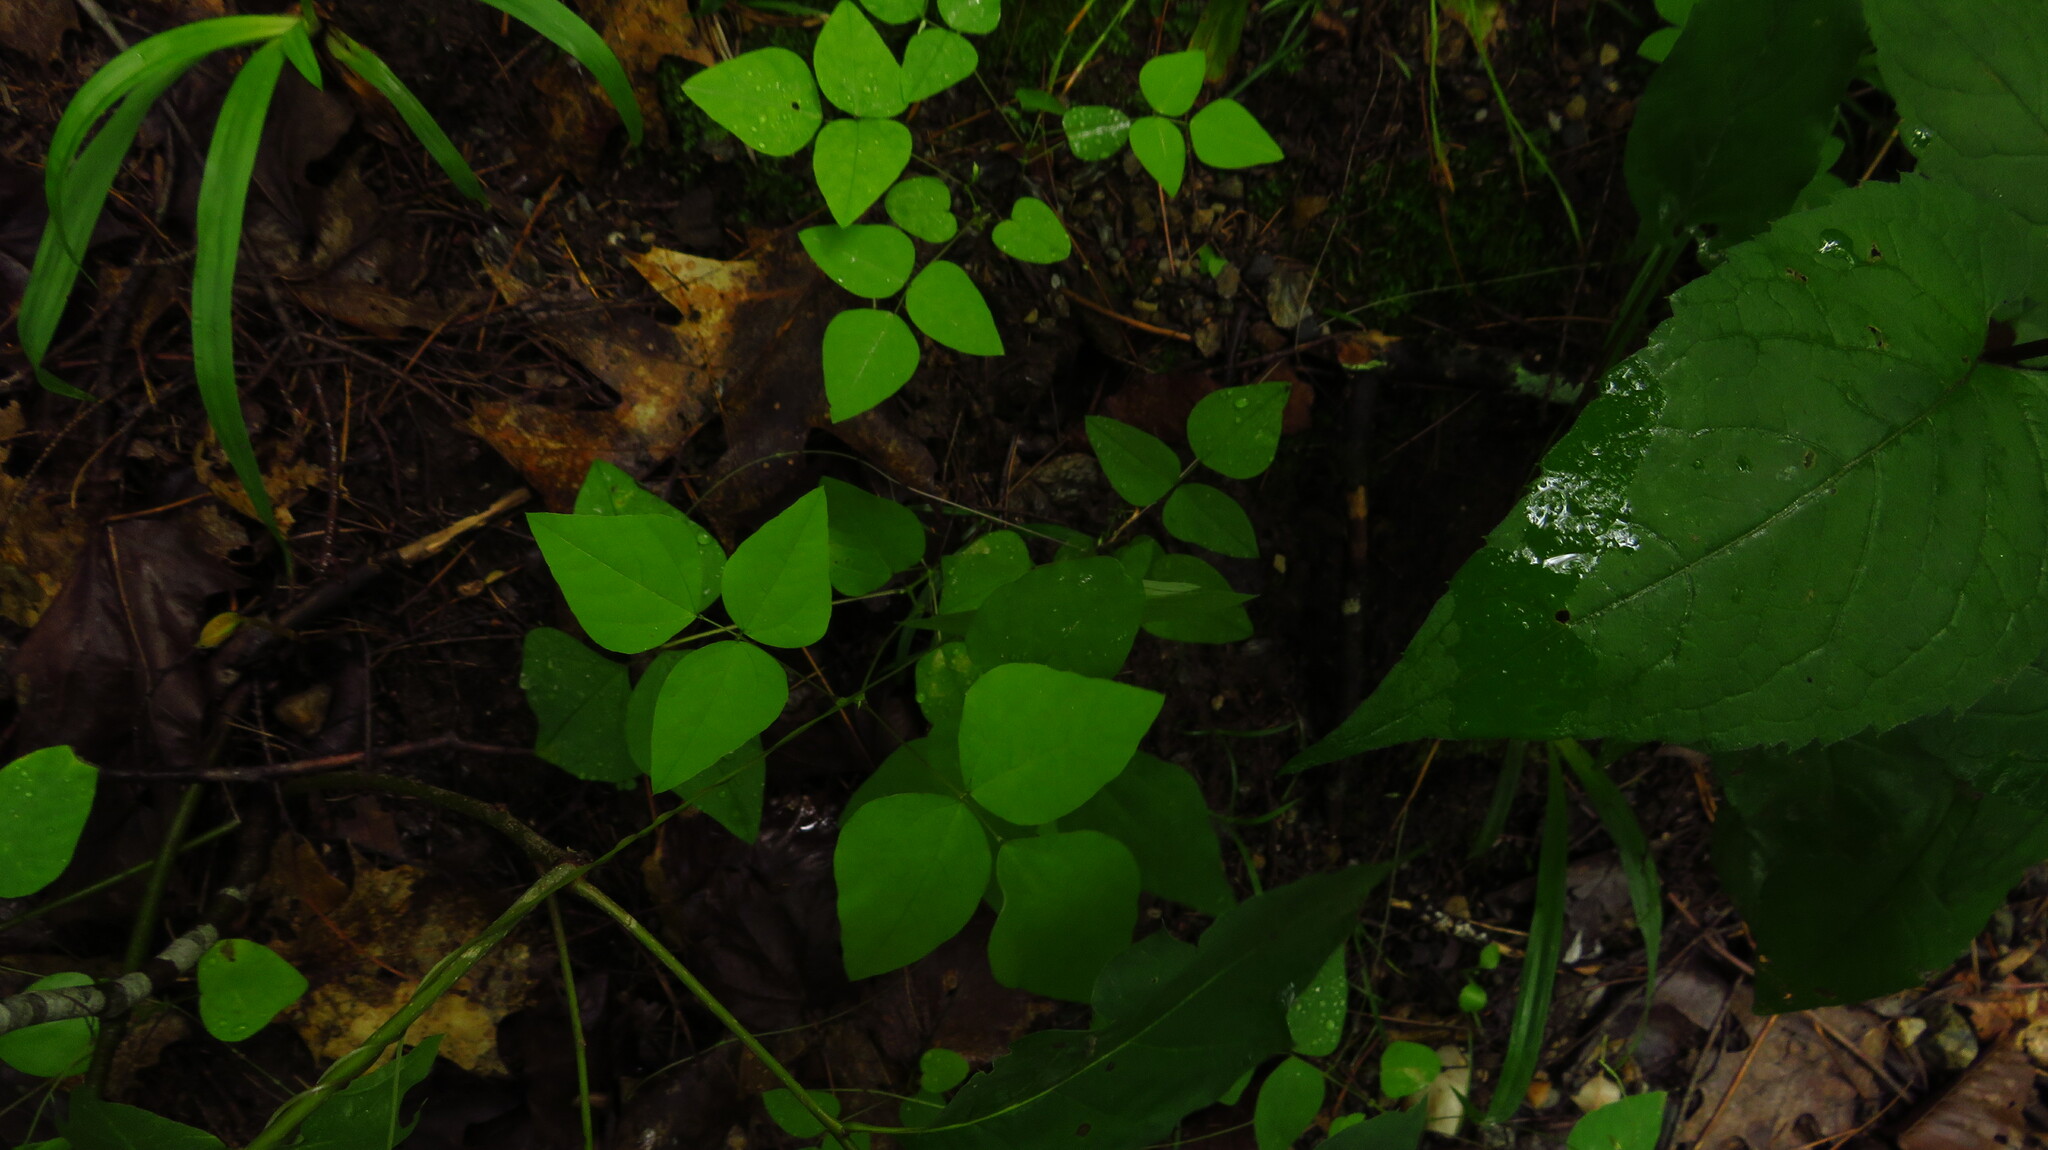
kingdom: Plantae
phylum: Tracheophyta
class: Magnoliopsida
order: Fabales
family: Fabaceae
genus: Amphicarpaea
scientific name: Amphicarpaea bracteata
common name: American hog peanut
